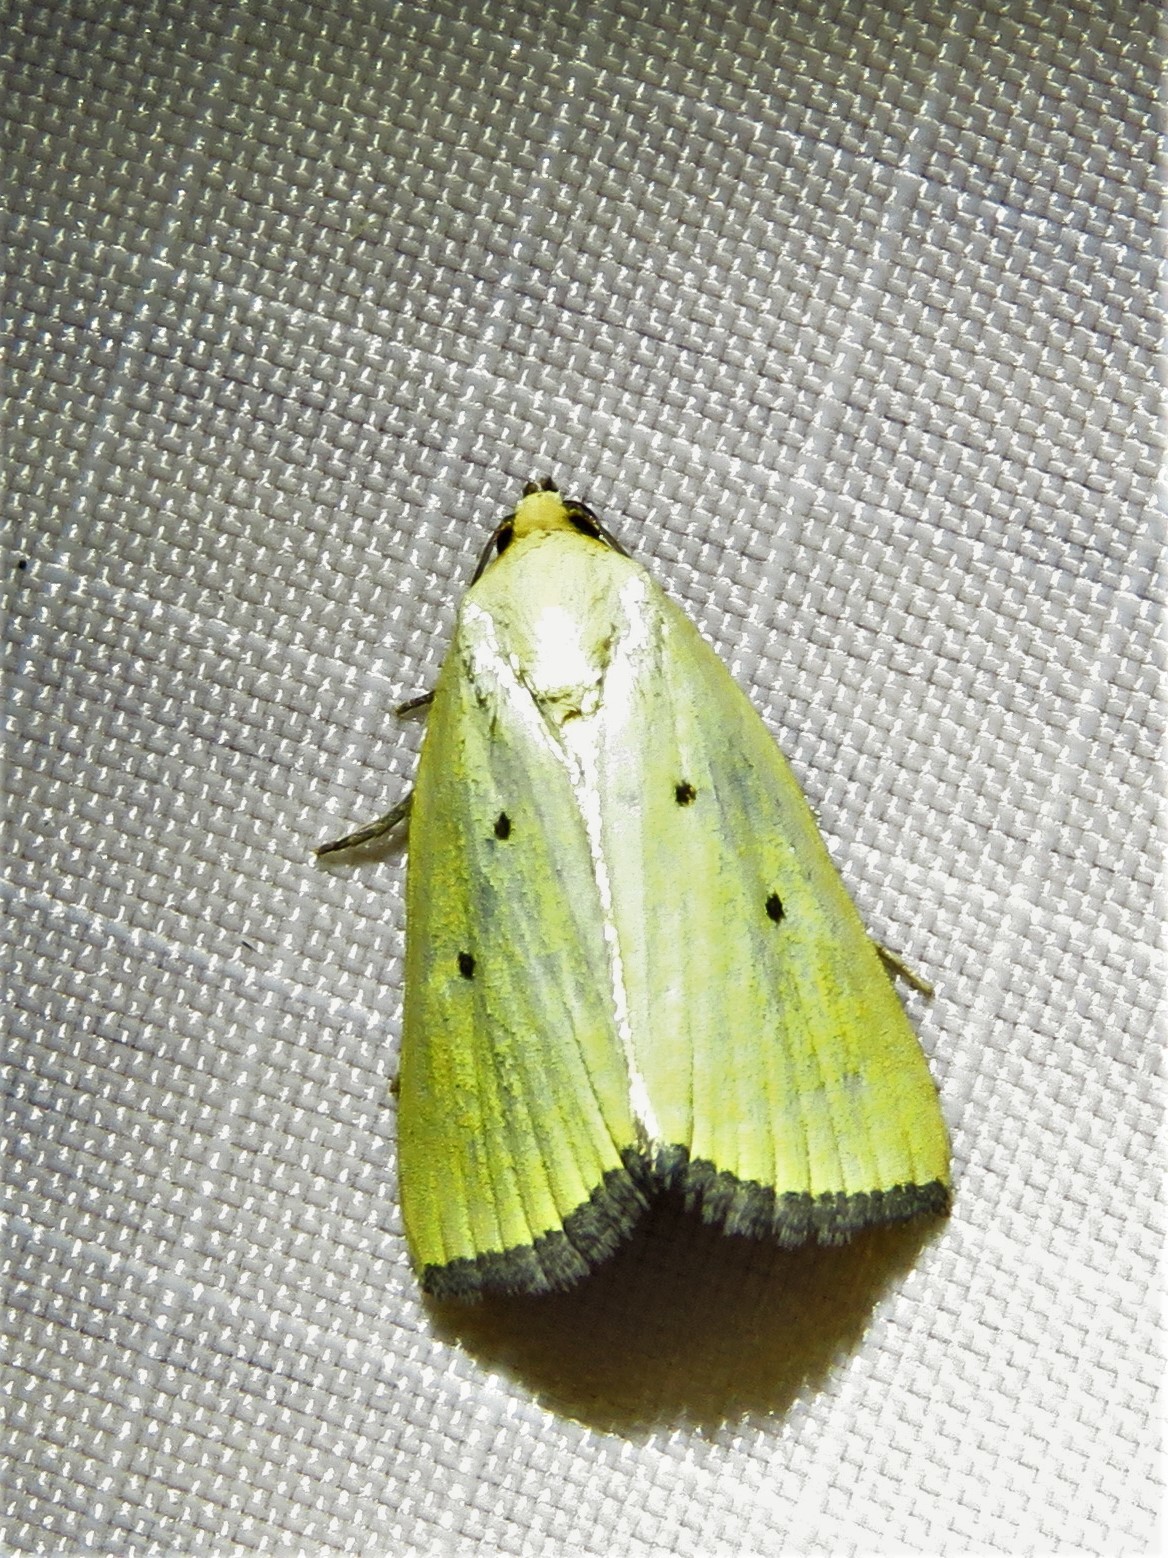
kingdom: Animalia
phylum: Arthropoda
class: Insecta
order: Lepidoptera
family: Noctuidae
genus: Marimatha
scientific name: Marimatha nigrofimbria
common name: Black-bordered lemon moth
